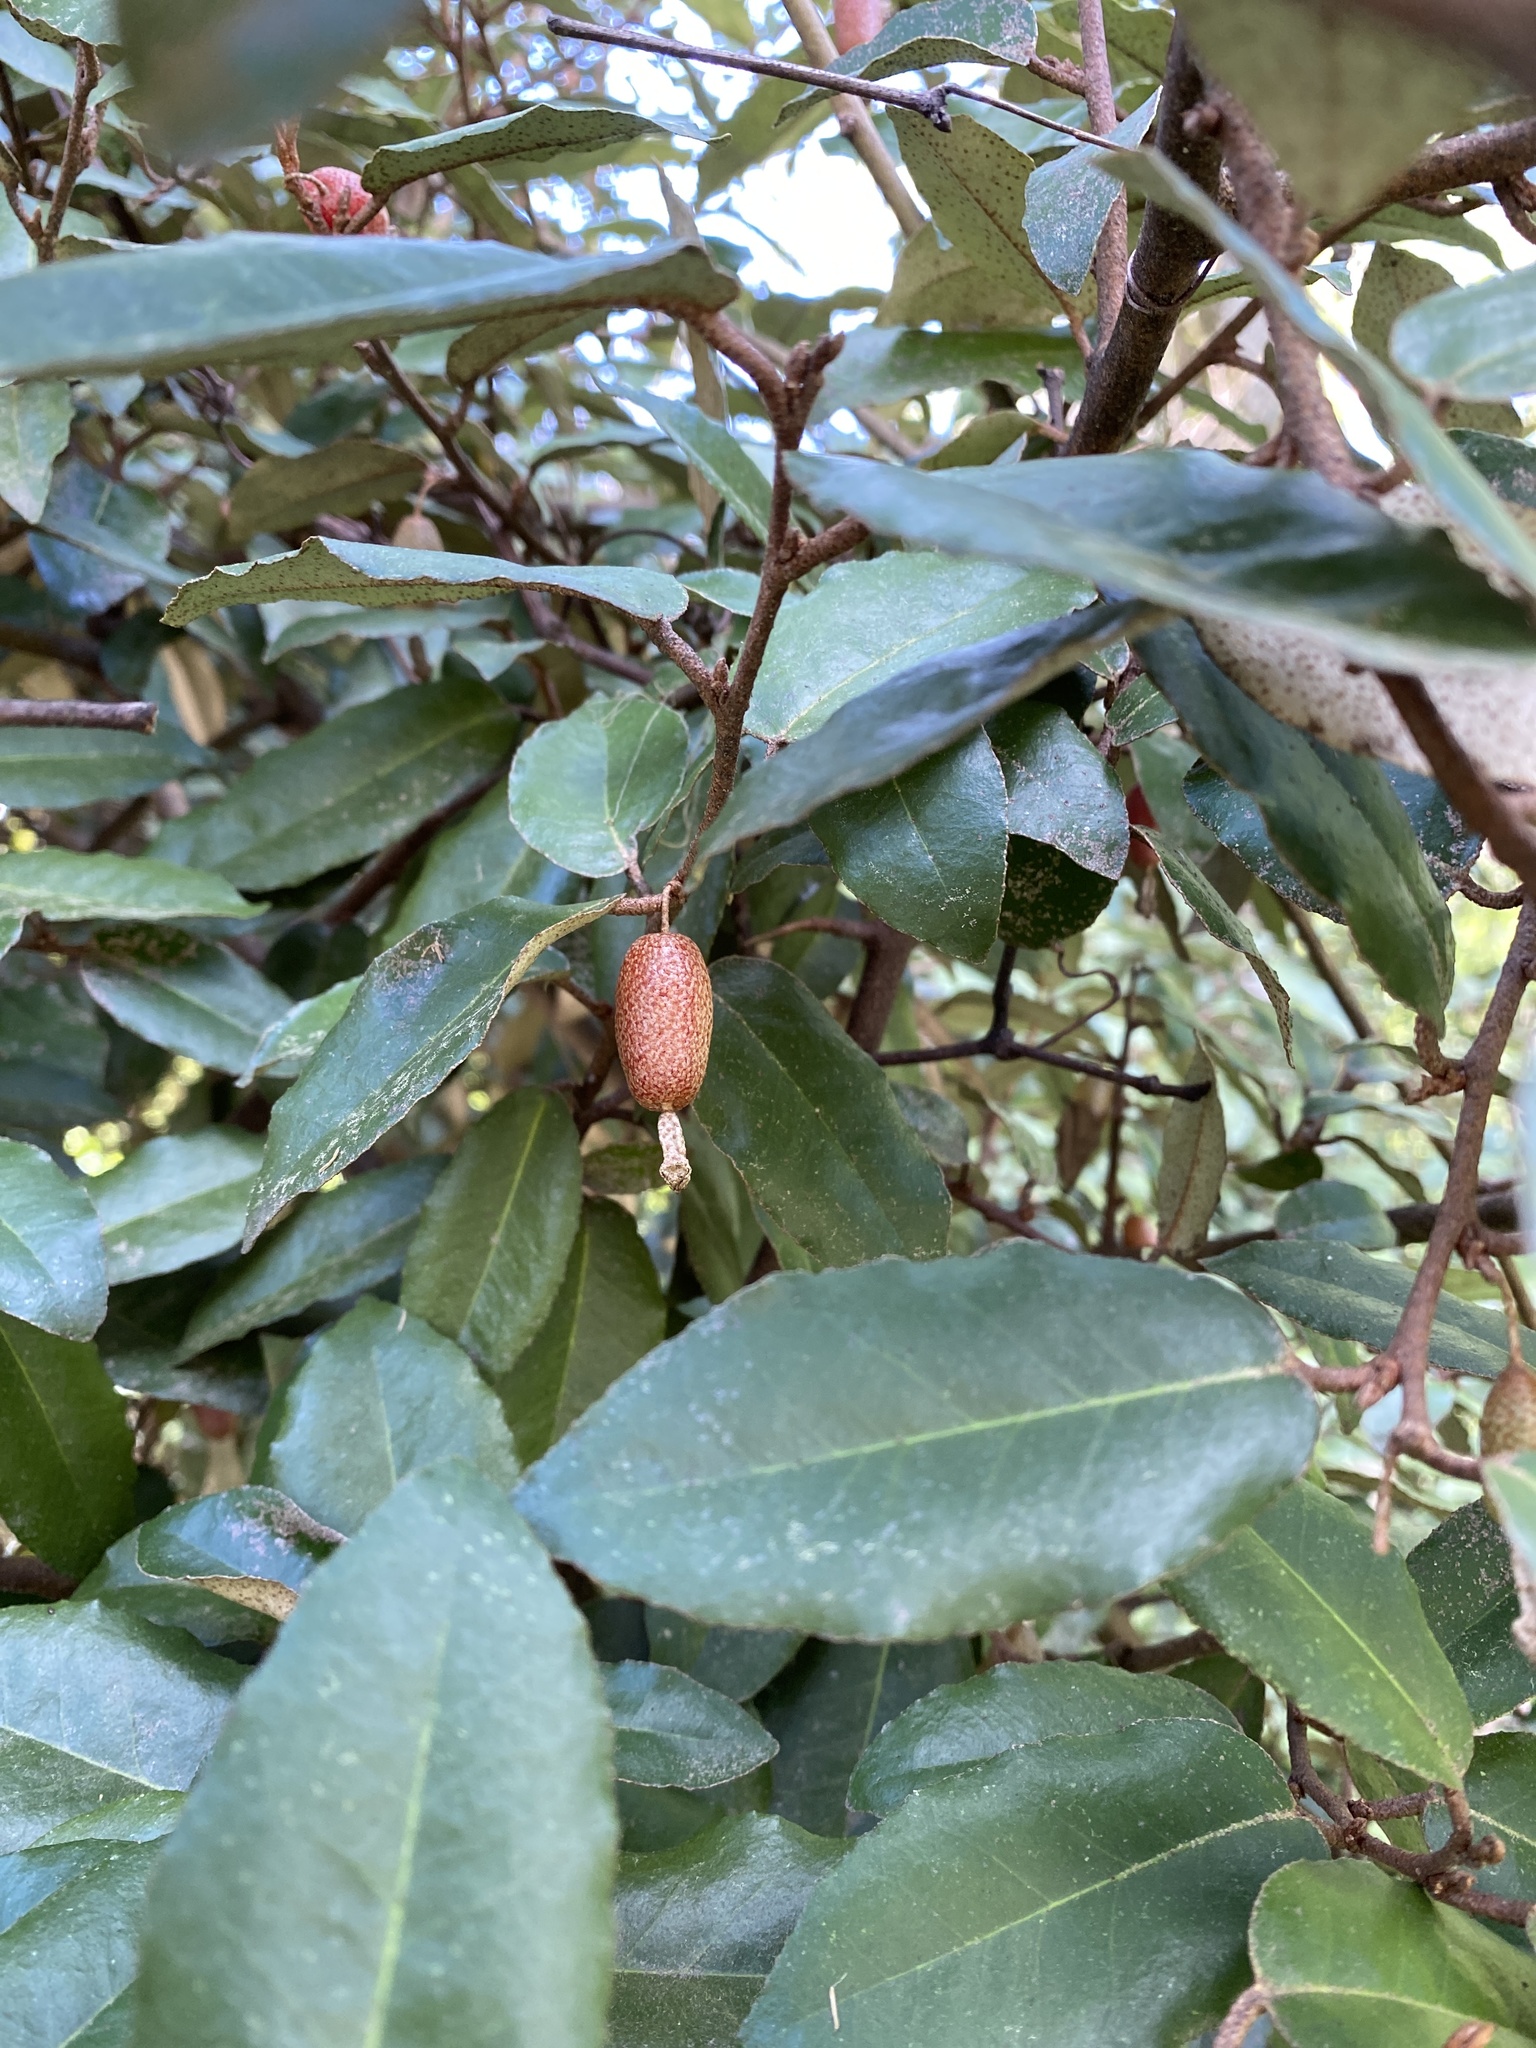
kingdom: Plantae
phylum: Tracheophyta
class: Magnoliopsida
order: Rosales
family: Elaeagnaceae
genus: Elaeagnus
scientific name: Elaeagnus pungens
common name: Spiny oleaster
